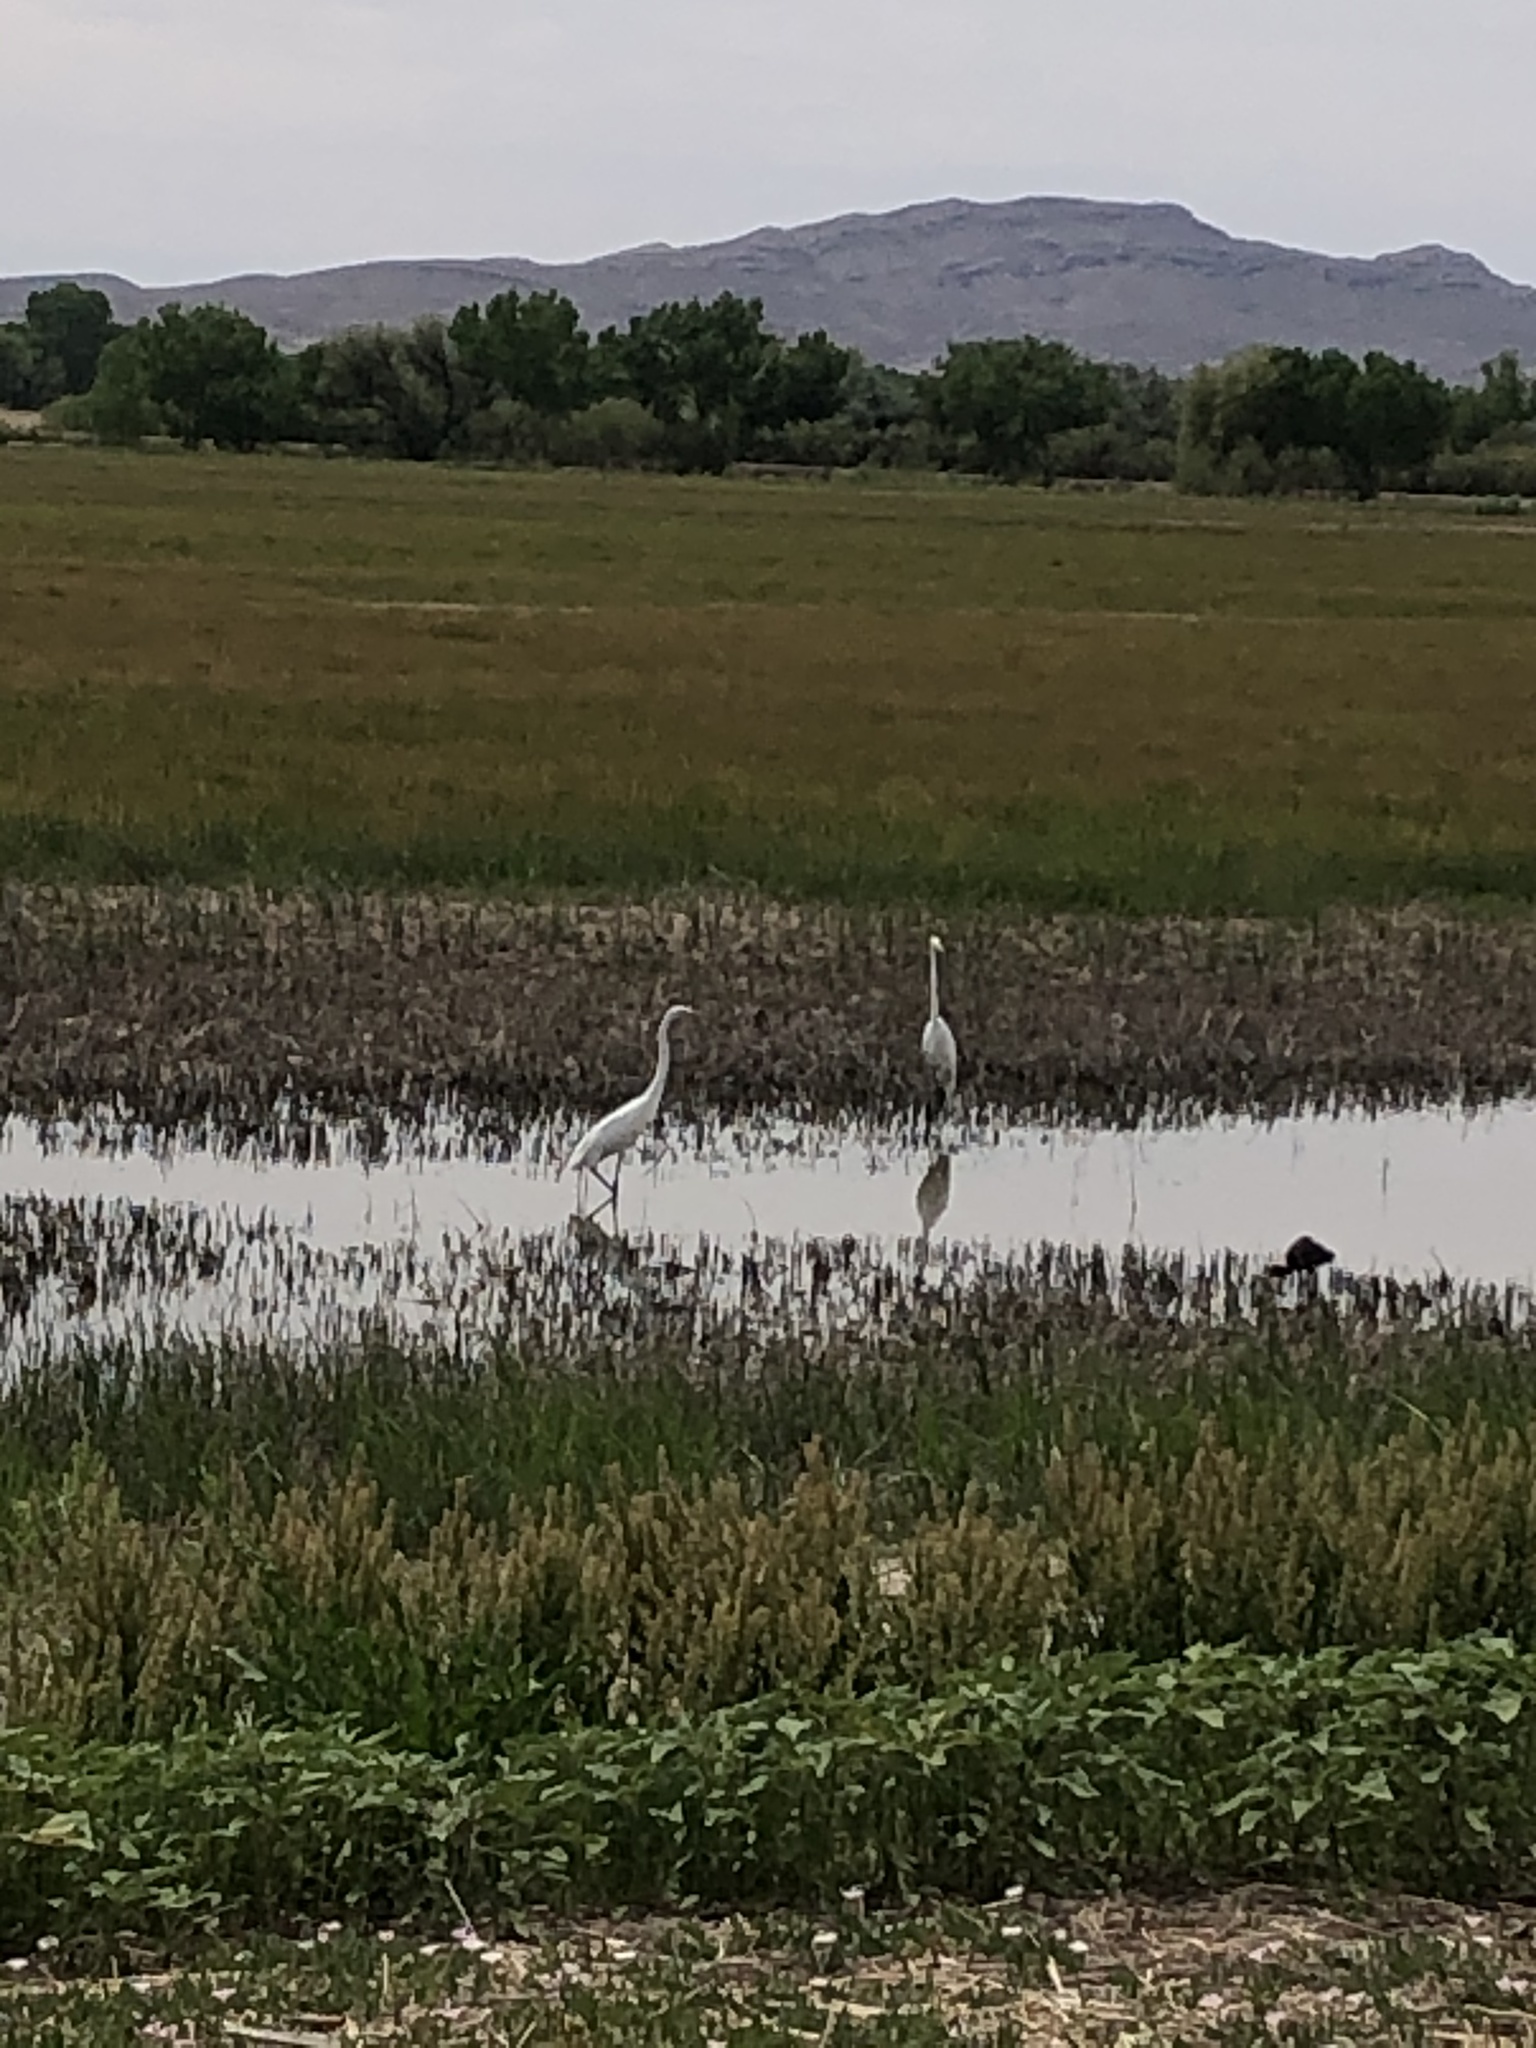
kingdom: Animalia
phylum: Chordata
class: Aves
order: Pelecaniformes
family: Ardeidae
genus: Ardea
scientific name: Ardea alba
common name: Great egret
